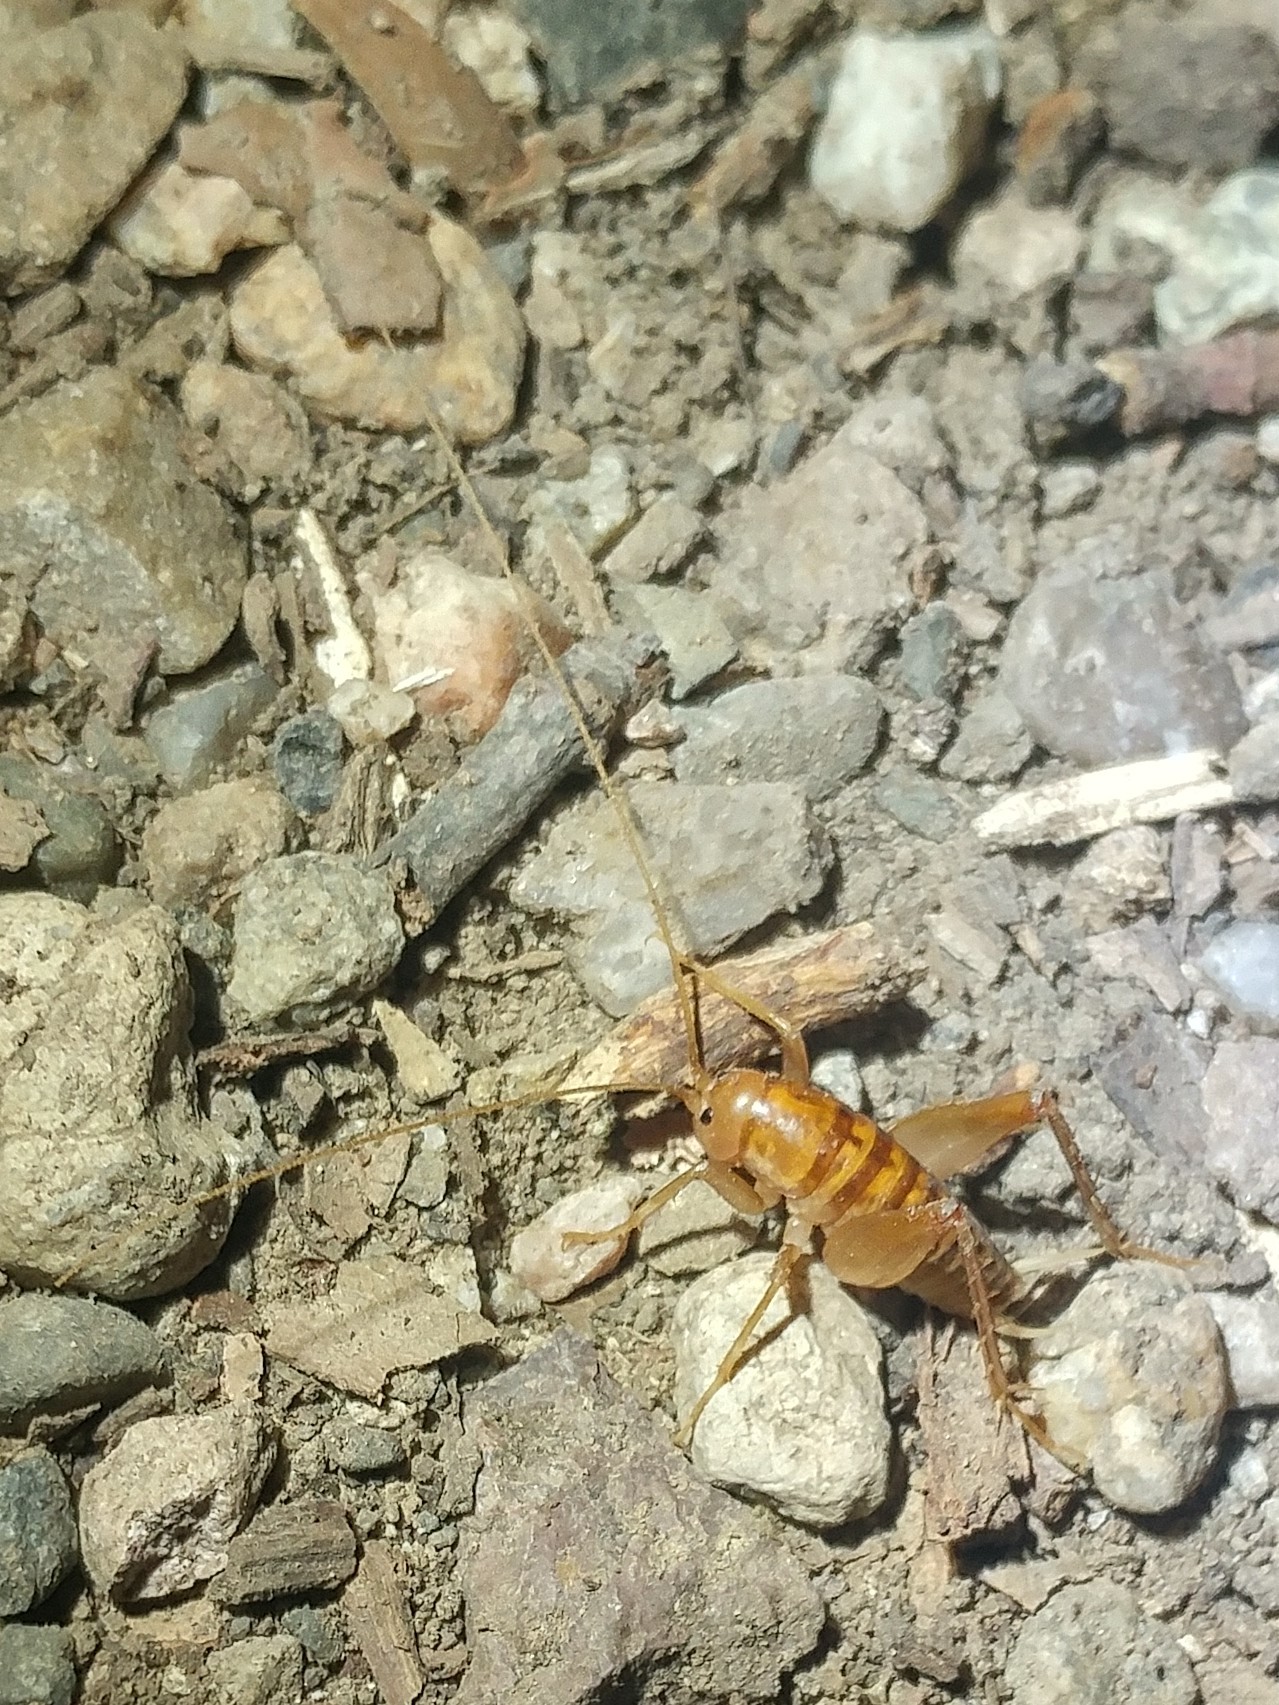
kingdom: Animalia
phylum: Arthropoda
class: Insecta
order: Orthoptera
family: Rhaphidophoridae
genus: Ceuthophilus
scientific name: Ceuthophilus californianus
